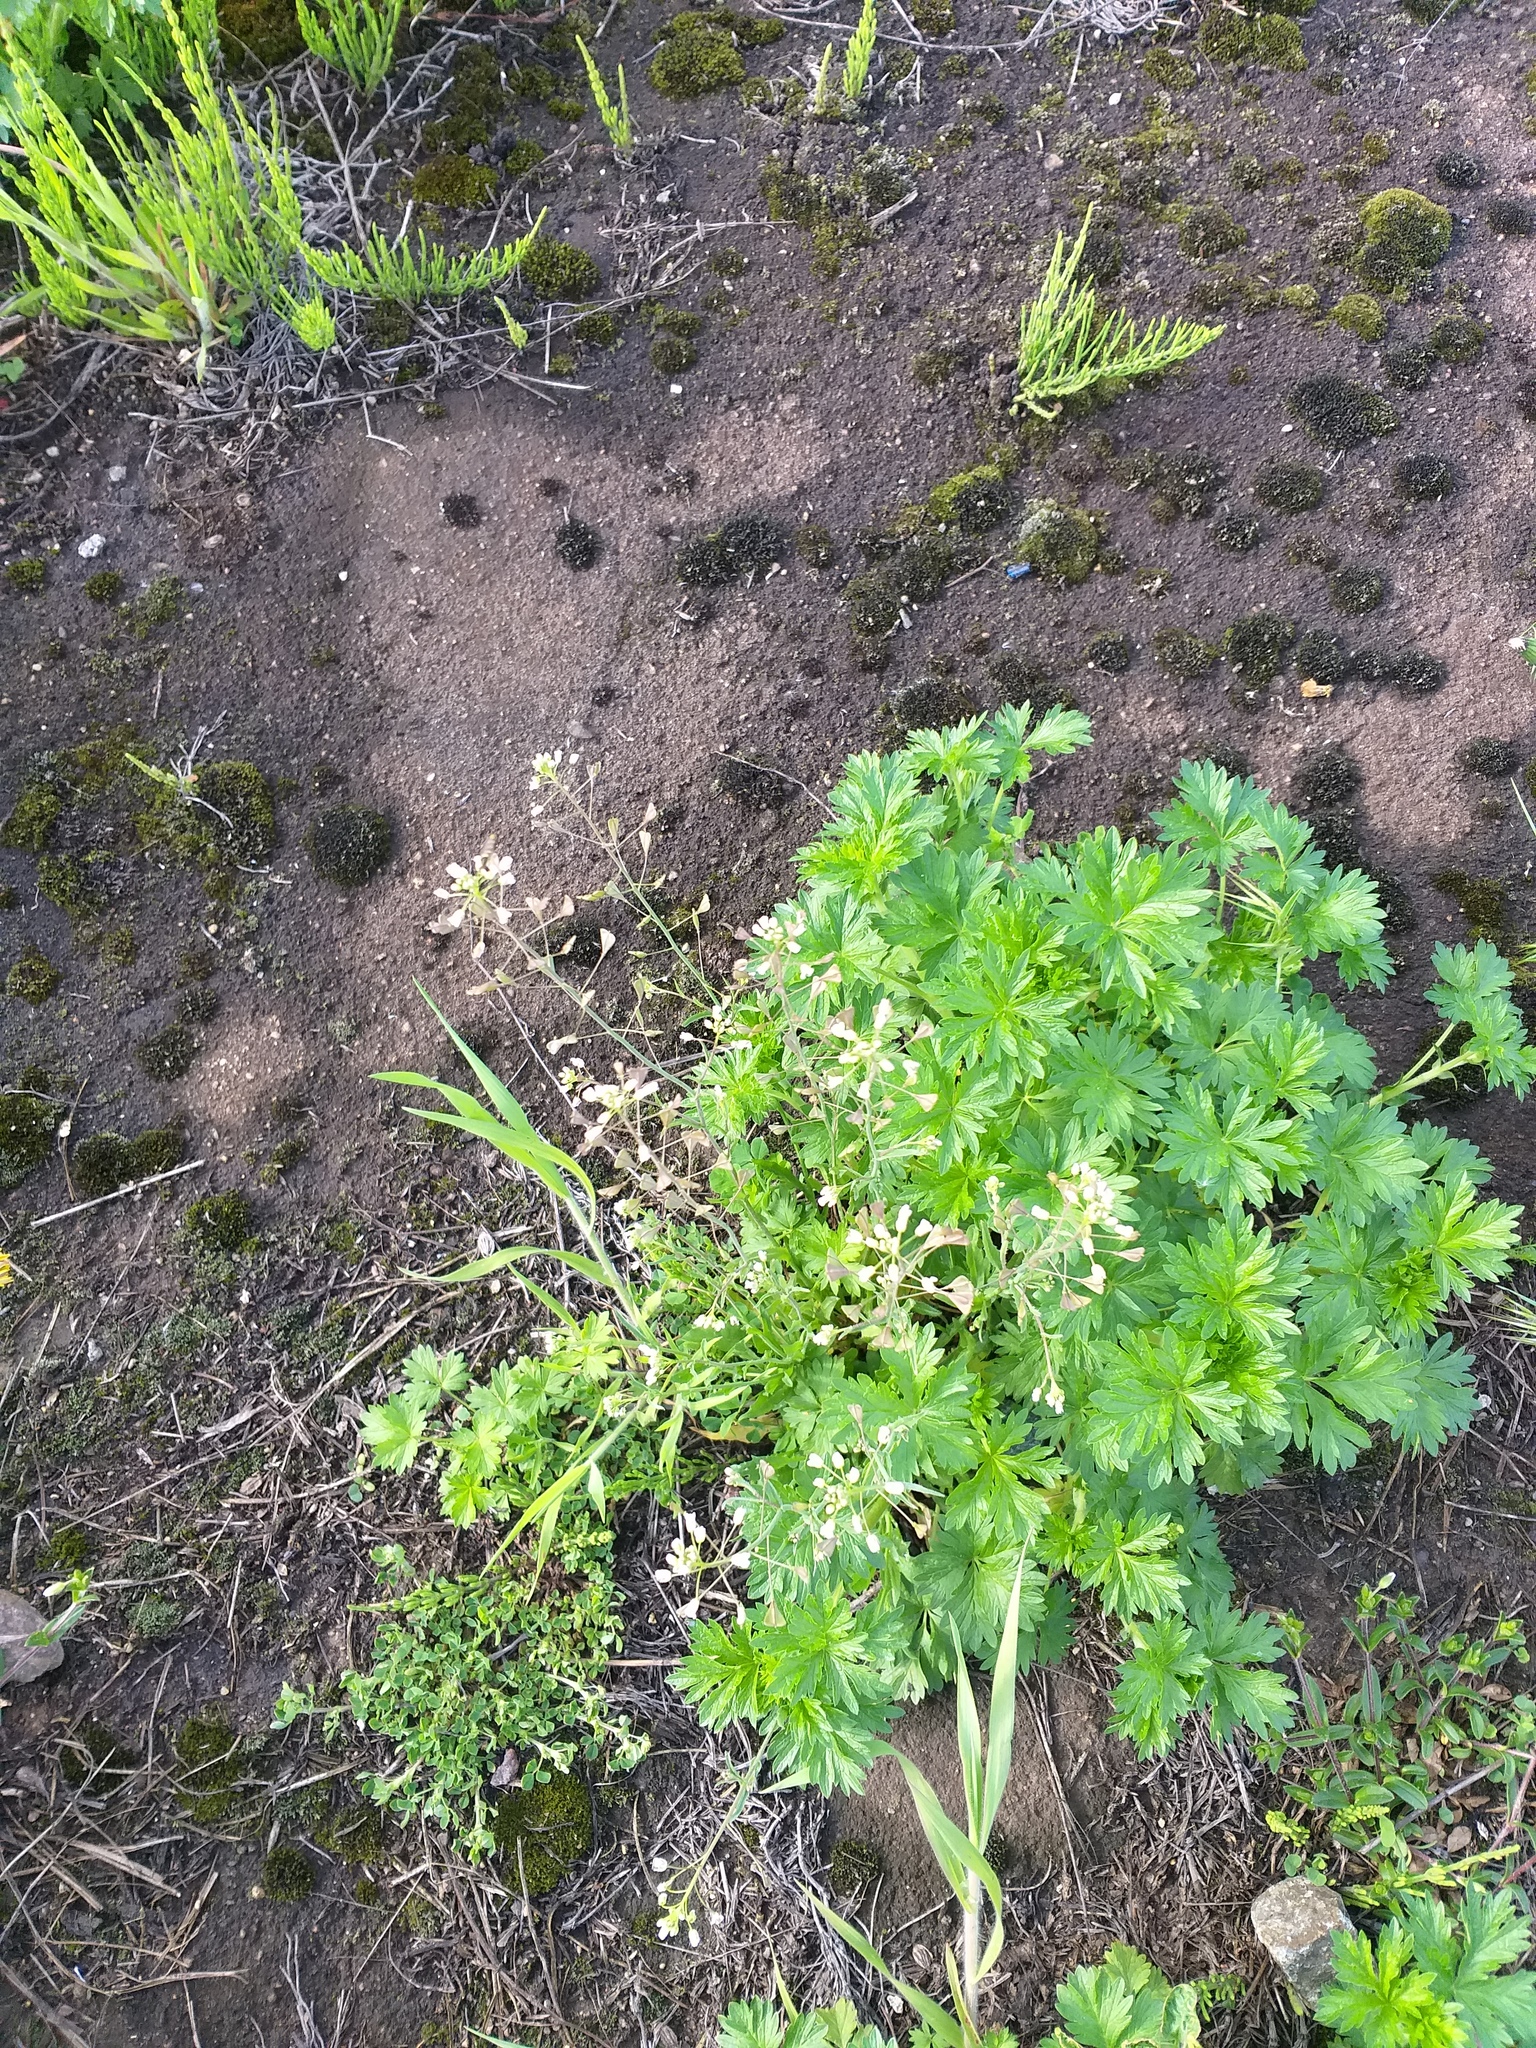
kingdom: Plantae
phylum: Tracheophyta
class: Magnoliopsida
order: Brassicales
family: Brassicaceae
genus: Capsella
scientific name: Capsella bursa-pastoris
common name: Shepherd's purse
